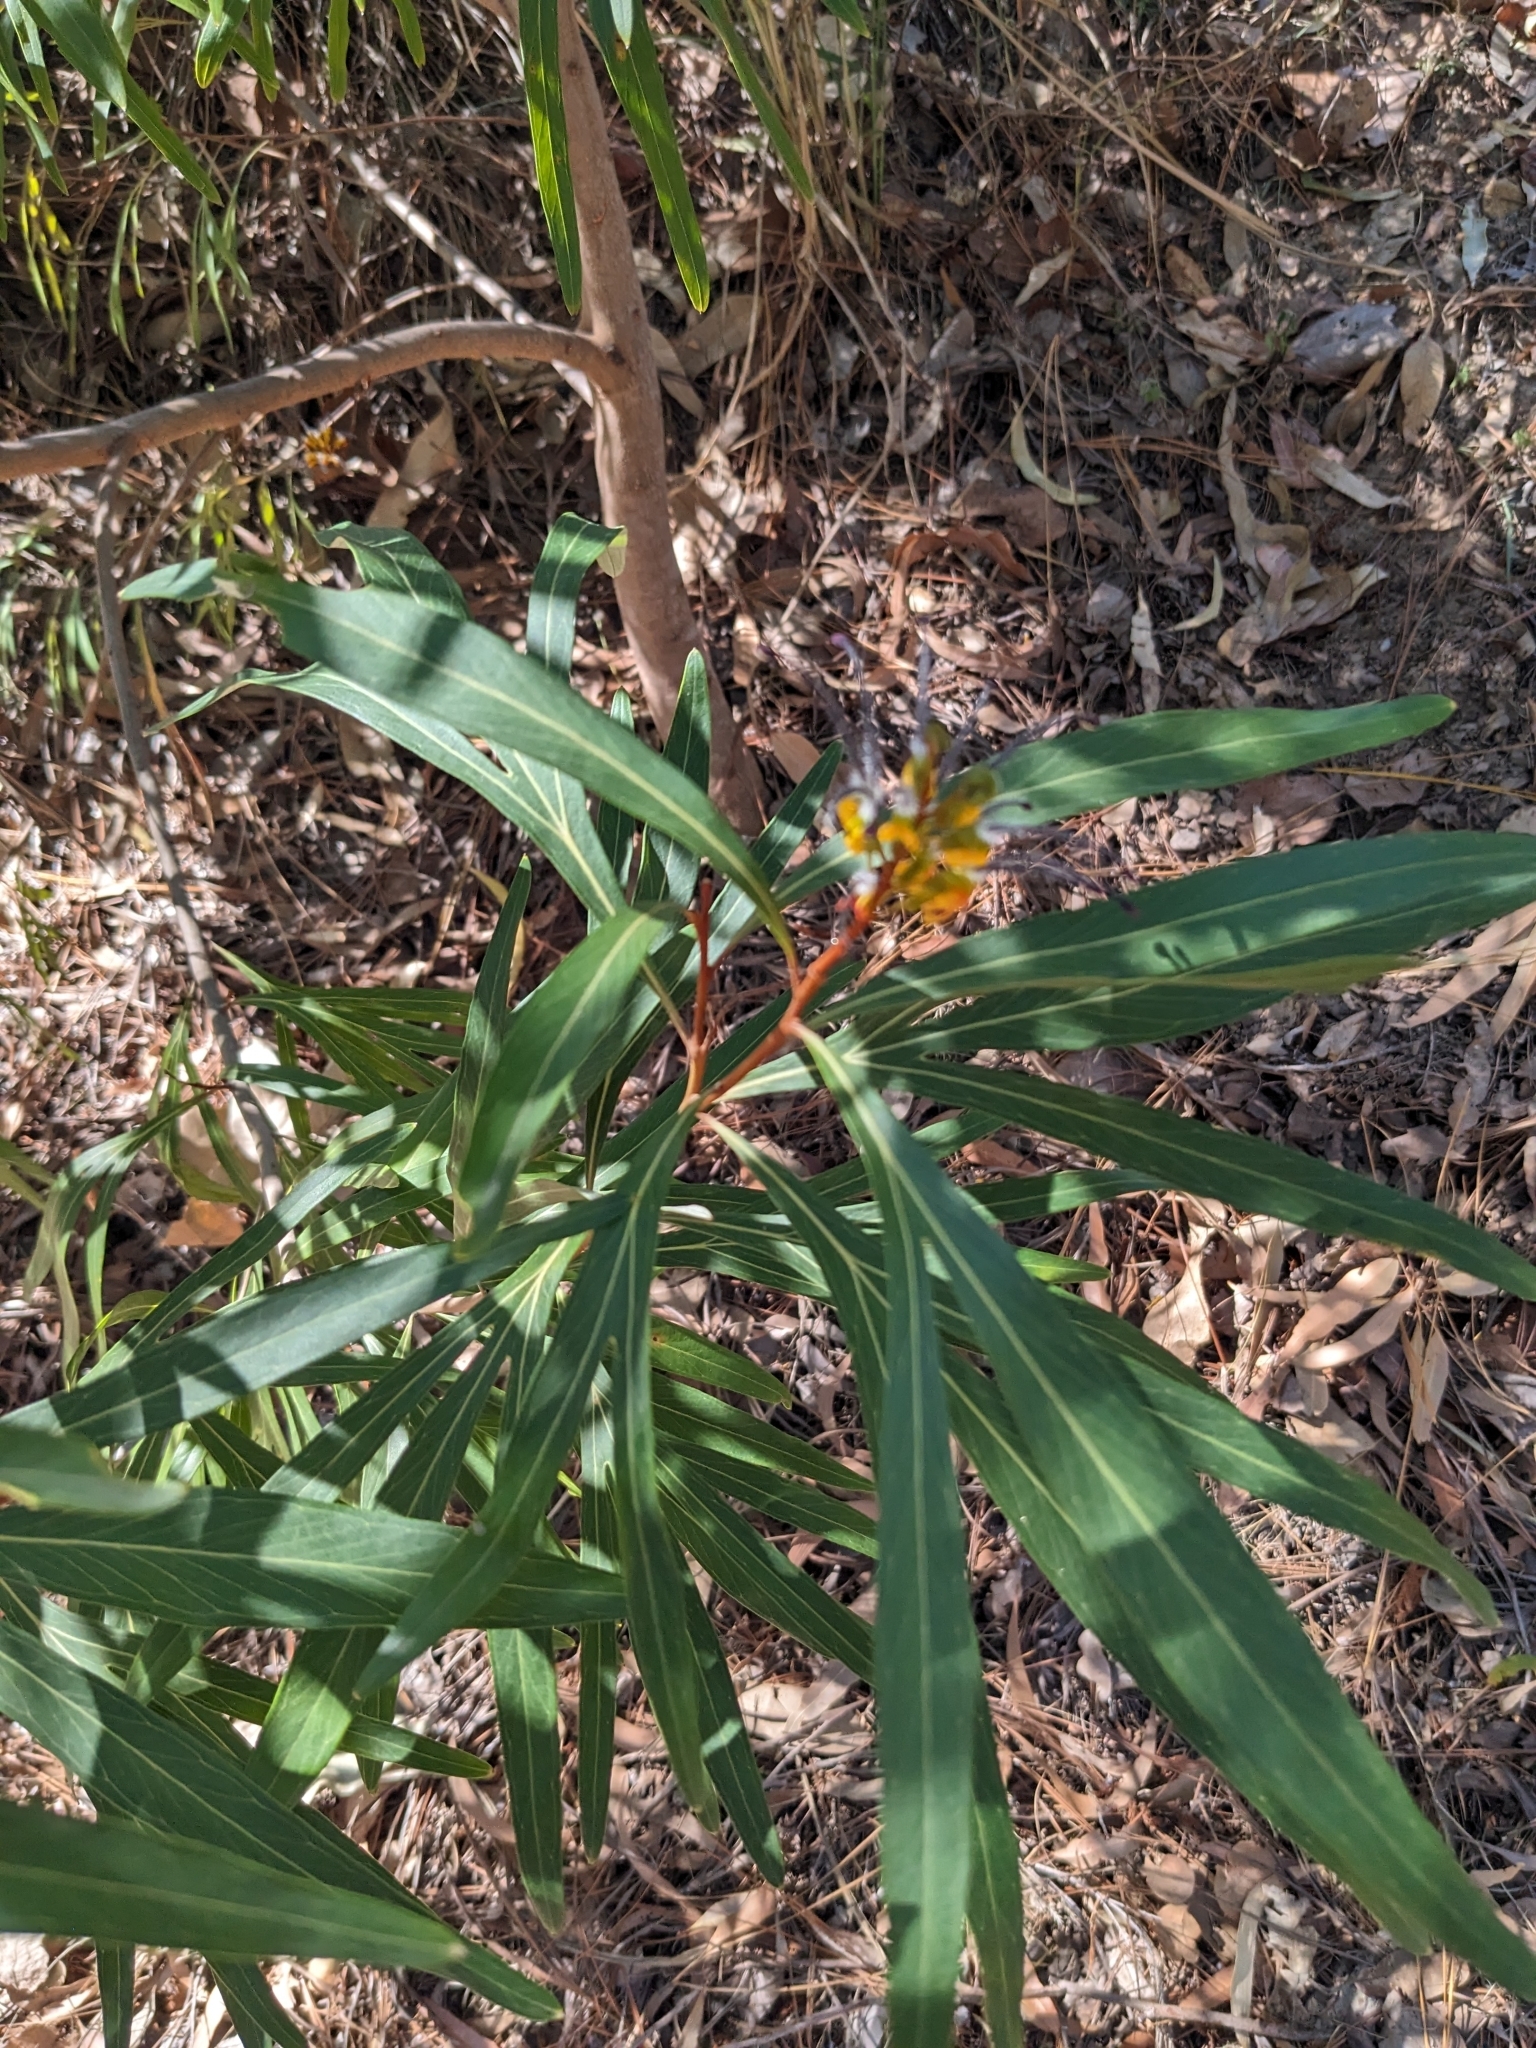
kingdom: Plantae
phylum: Tracheophyta
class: Magnoliopsida
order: Proteales
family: Proteaceae
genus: Grevillea
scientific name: Grevillea venusta
